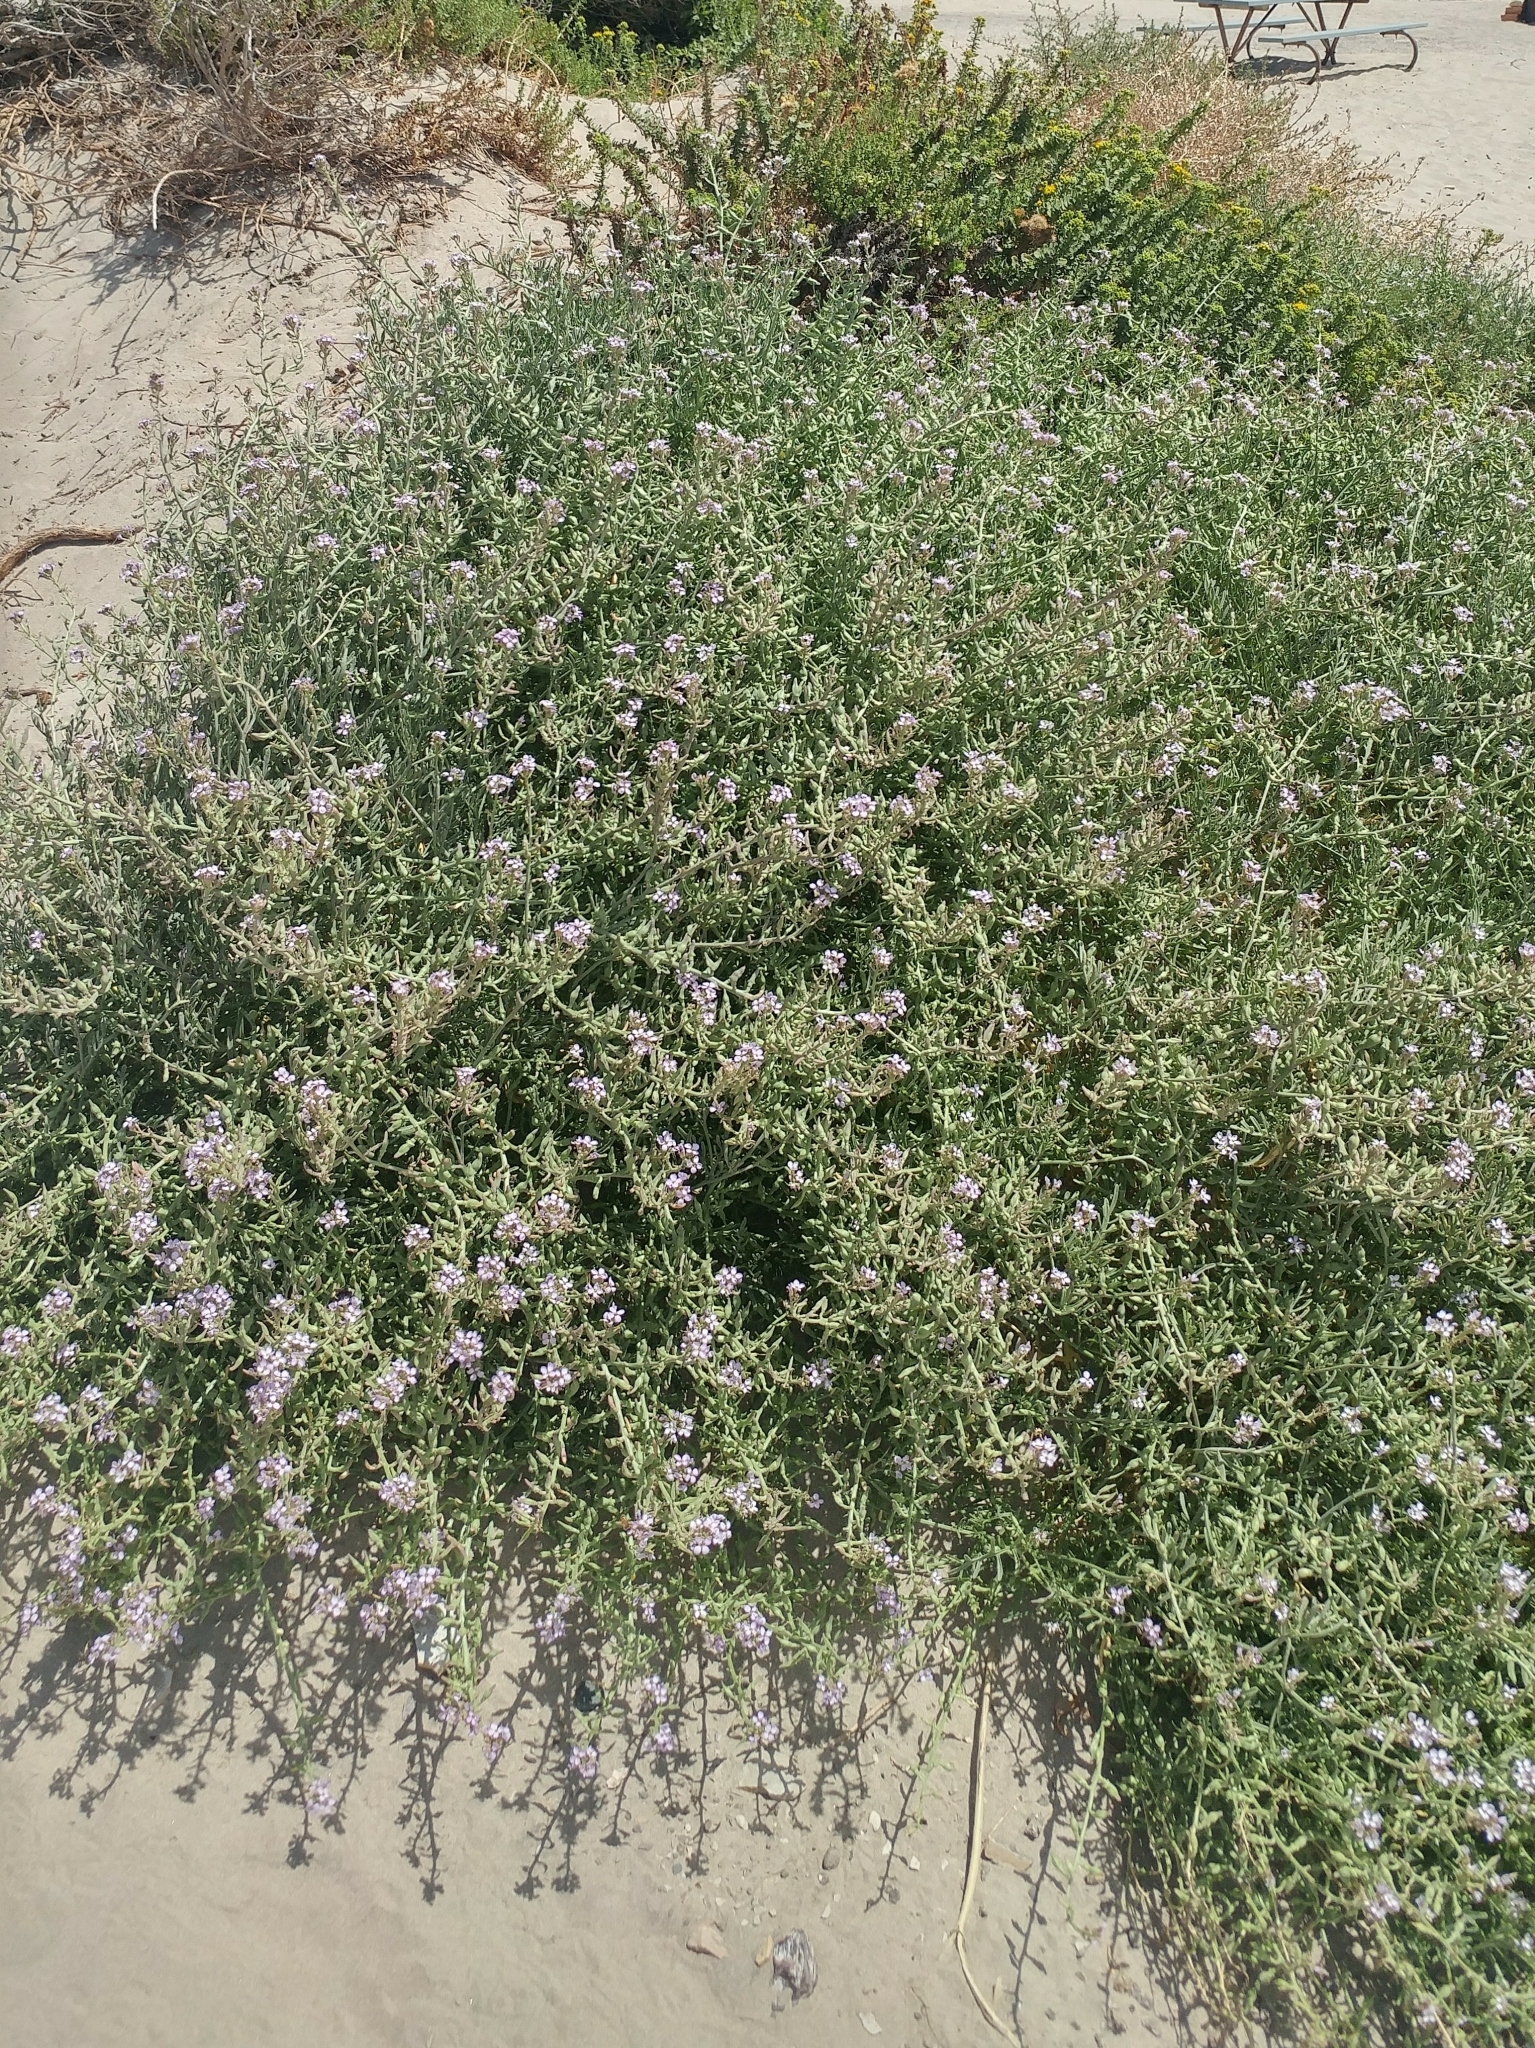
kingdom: Plantae
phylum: Tracheophyta
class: Magnoliopsida
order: Brassicales
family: Brassicaceae
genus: Cakile
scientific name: Cakile maritima
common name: Sea rocket
